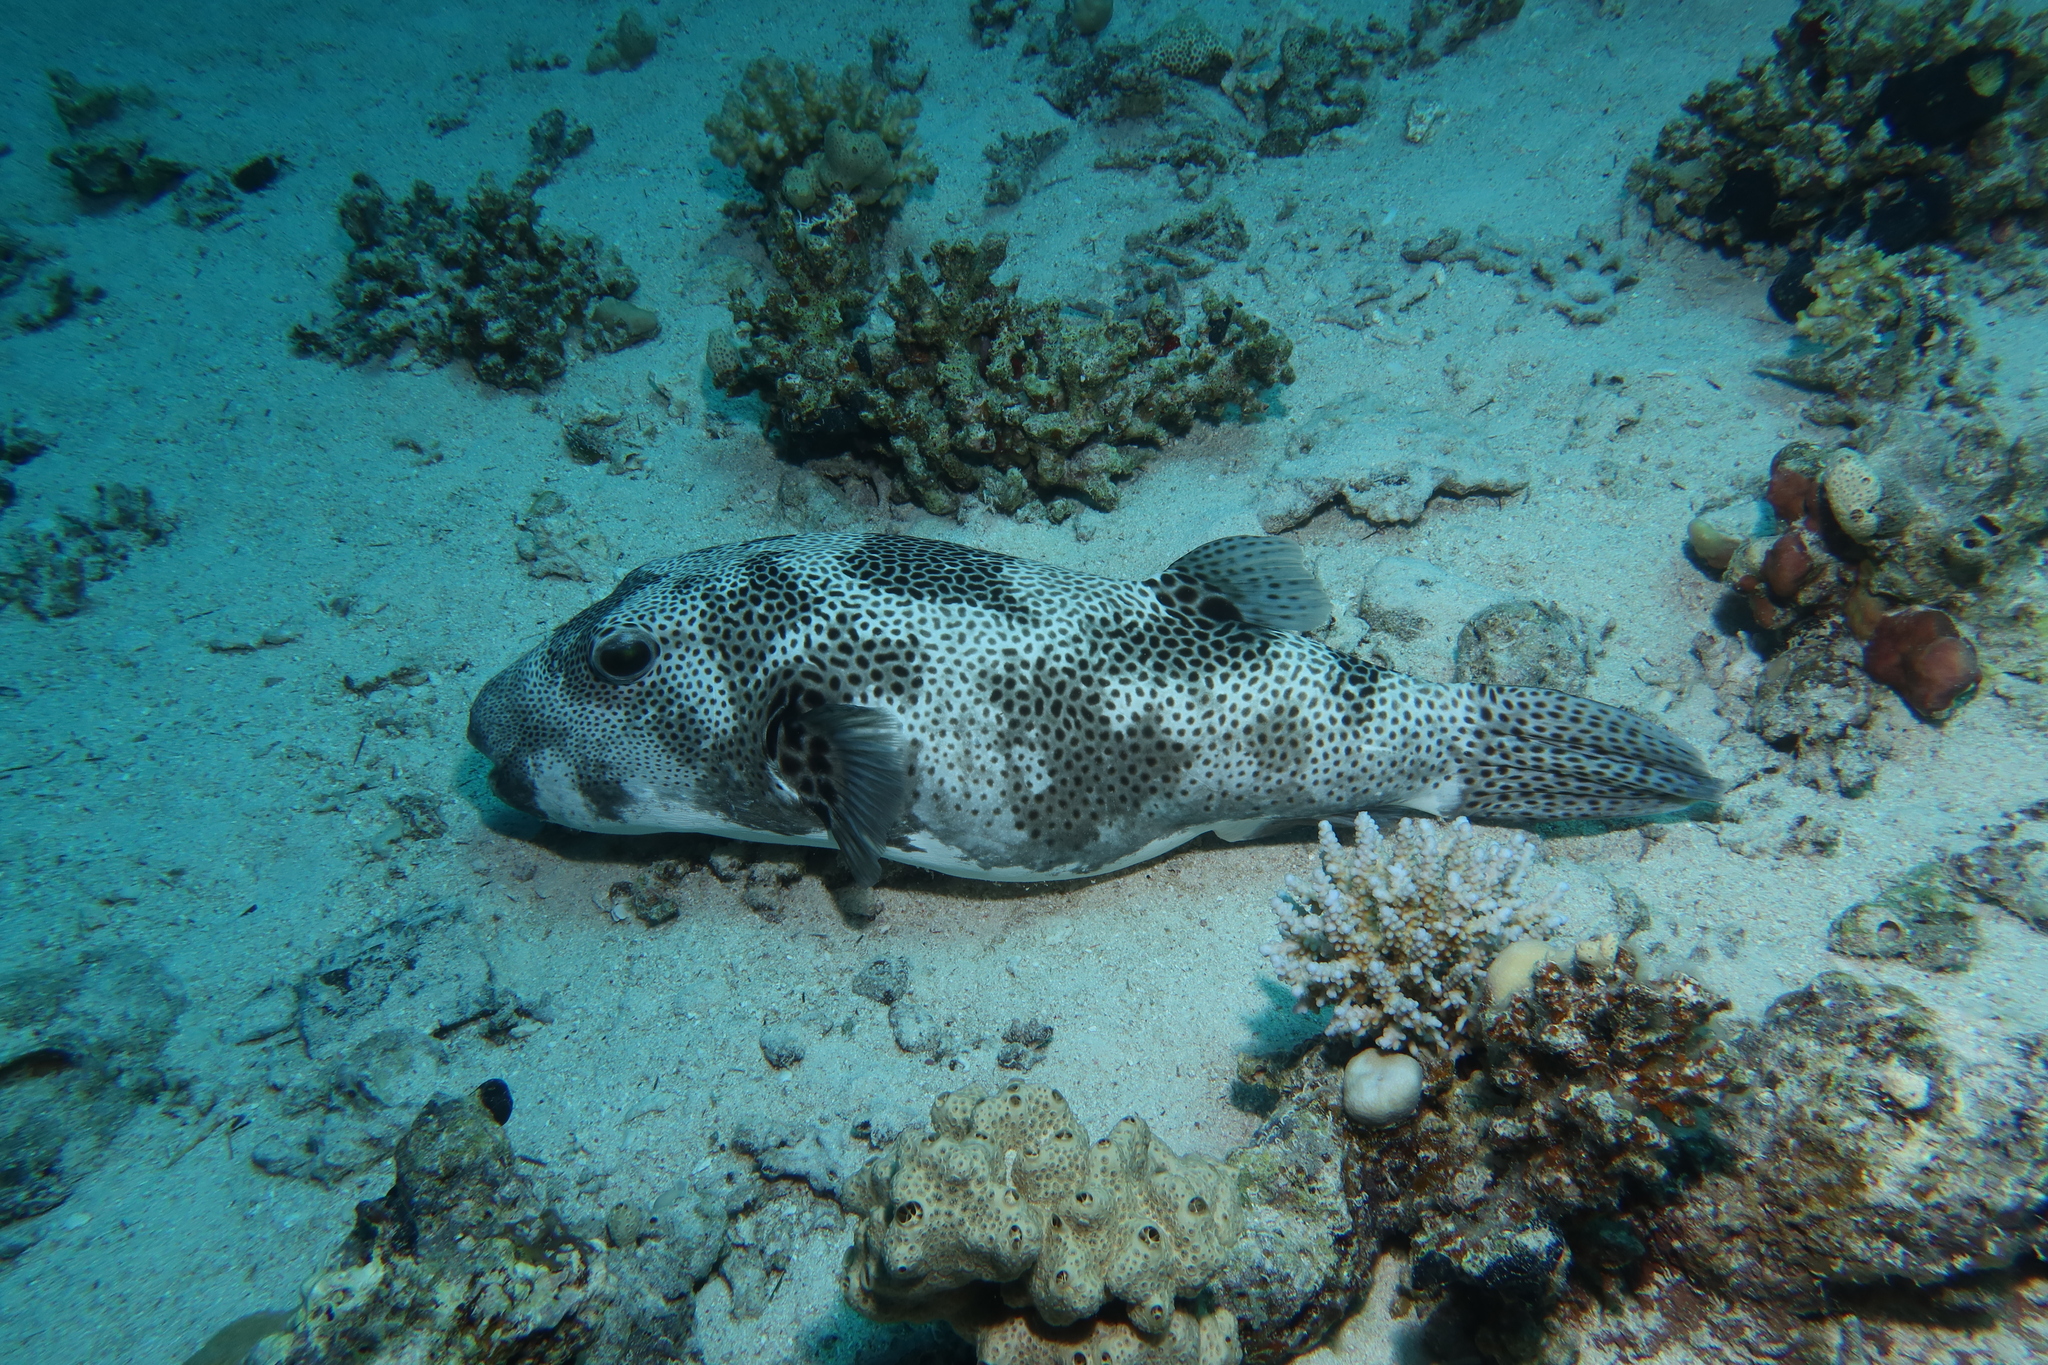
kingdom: Animalia
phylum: Chordata
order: Tetraodontiformes
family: Tetraodontidae
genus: Arothron
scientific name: Arothron stellatus
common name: Star blaasop
